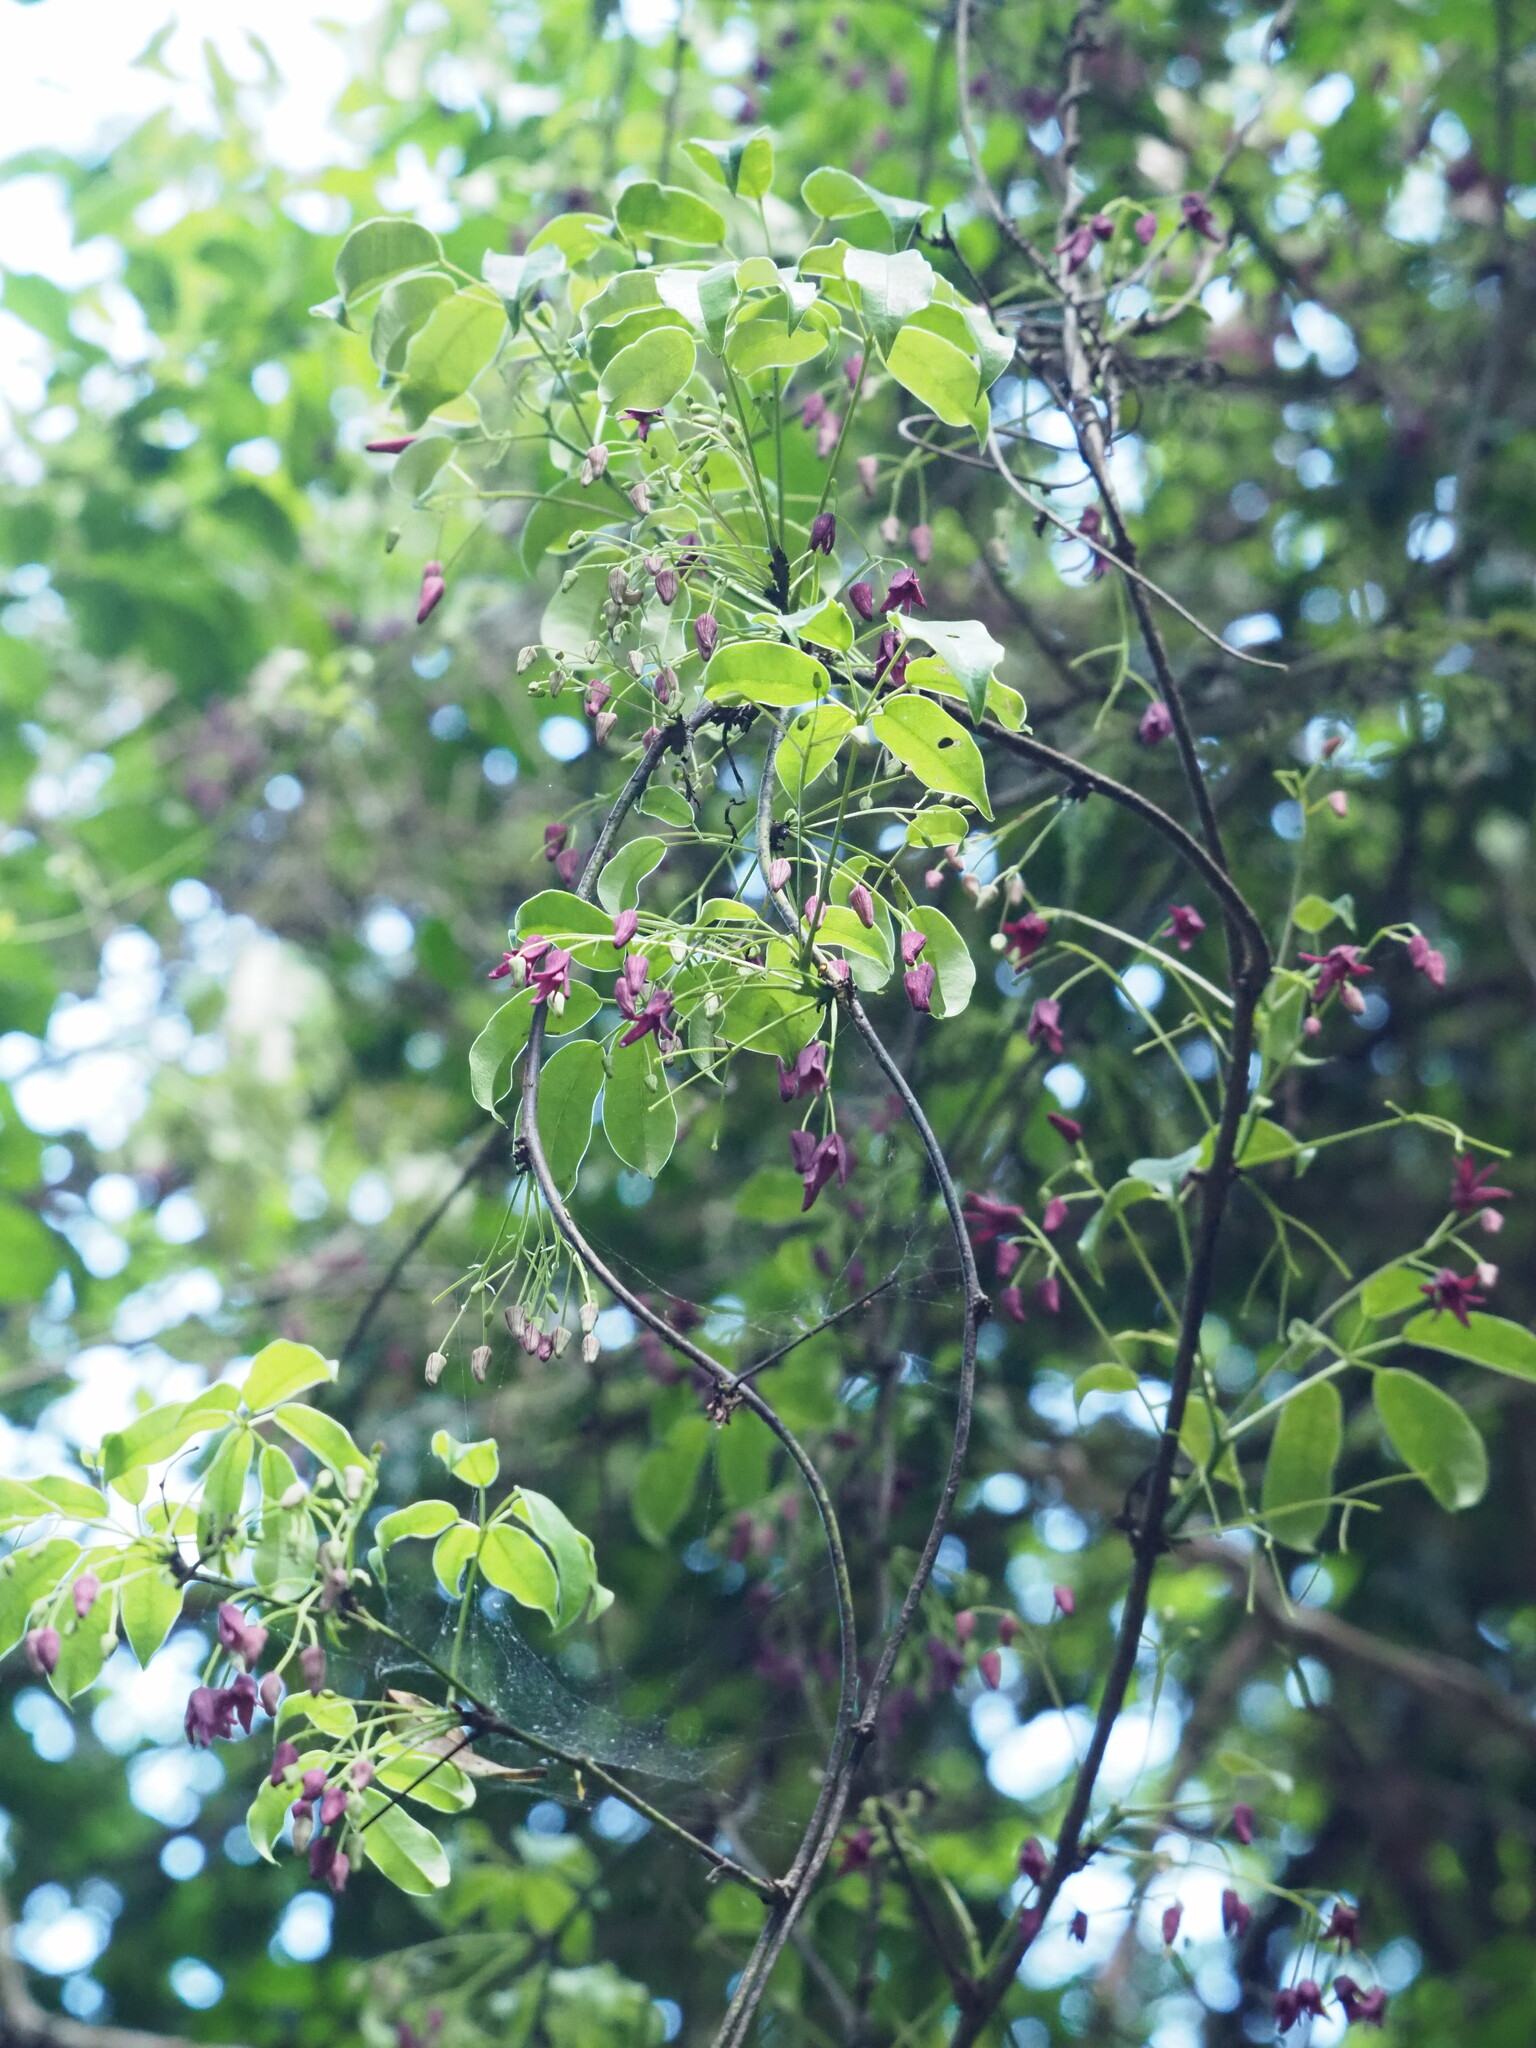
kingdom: Plantae
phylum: Tracheophyta
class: Magnoliopsida
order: Ranunculales
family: Lardizabalaceae
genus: Stauntonia
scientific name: Stauntonia purpurea
